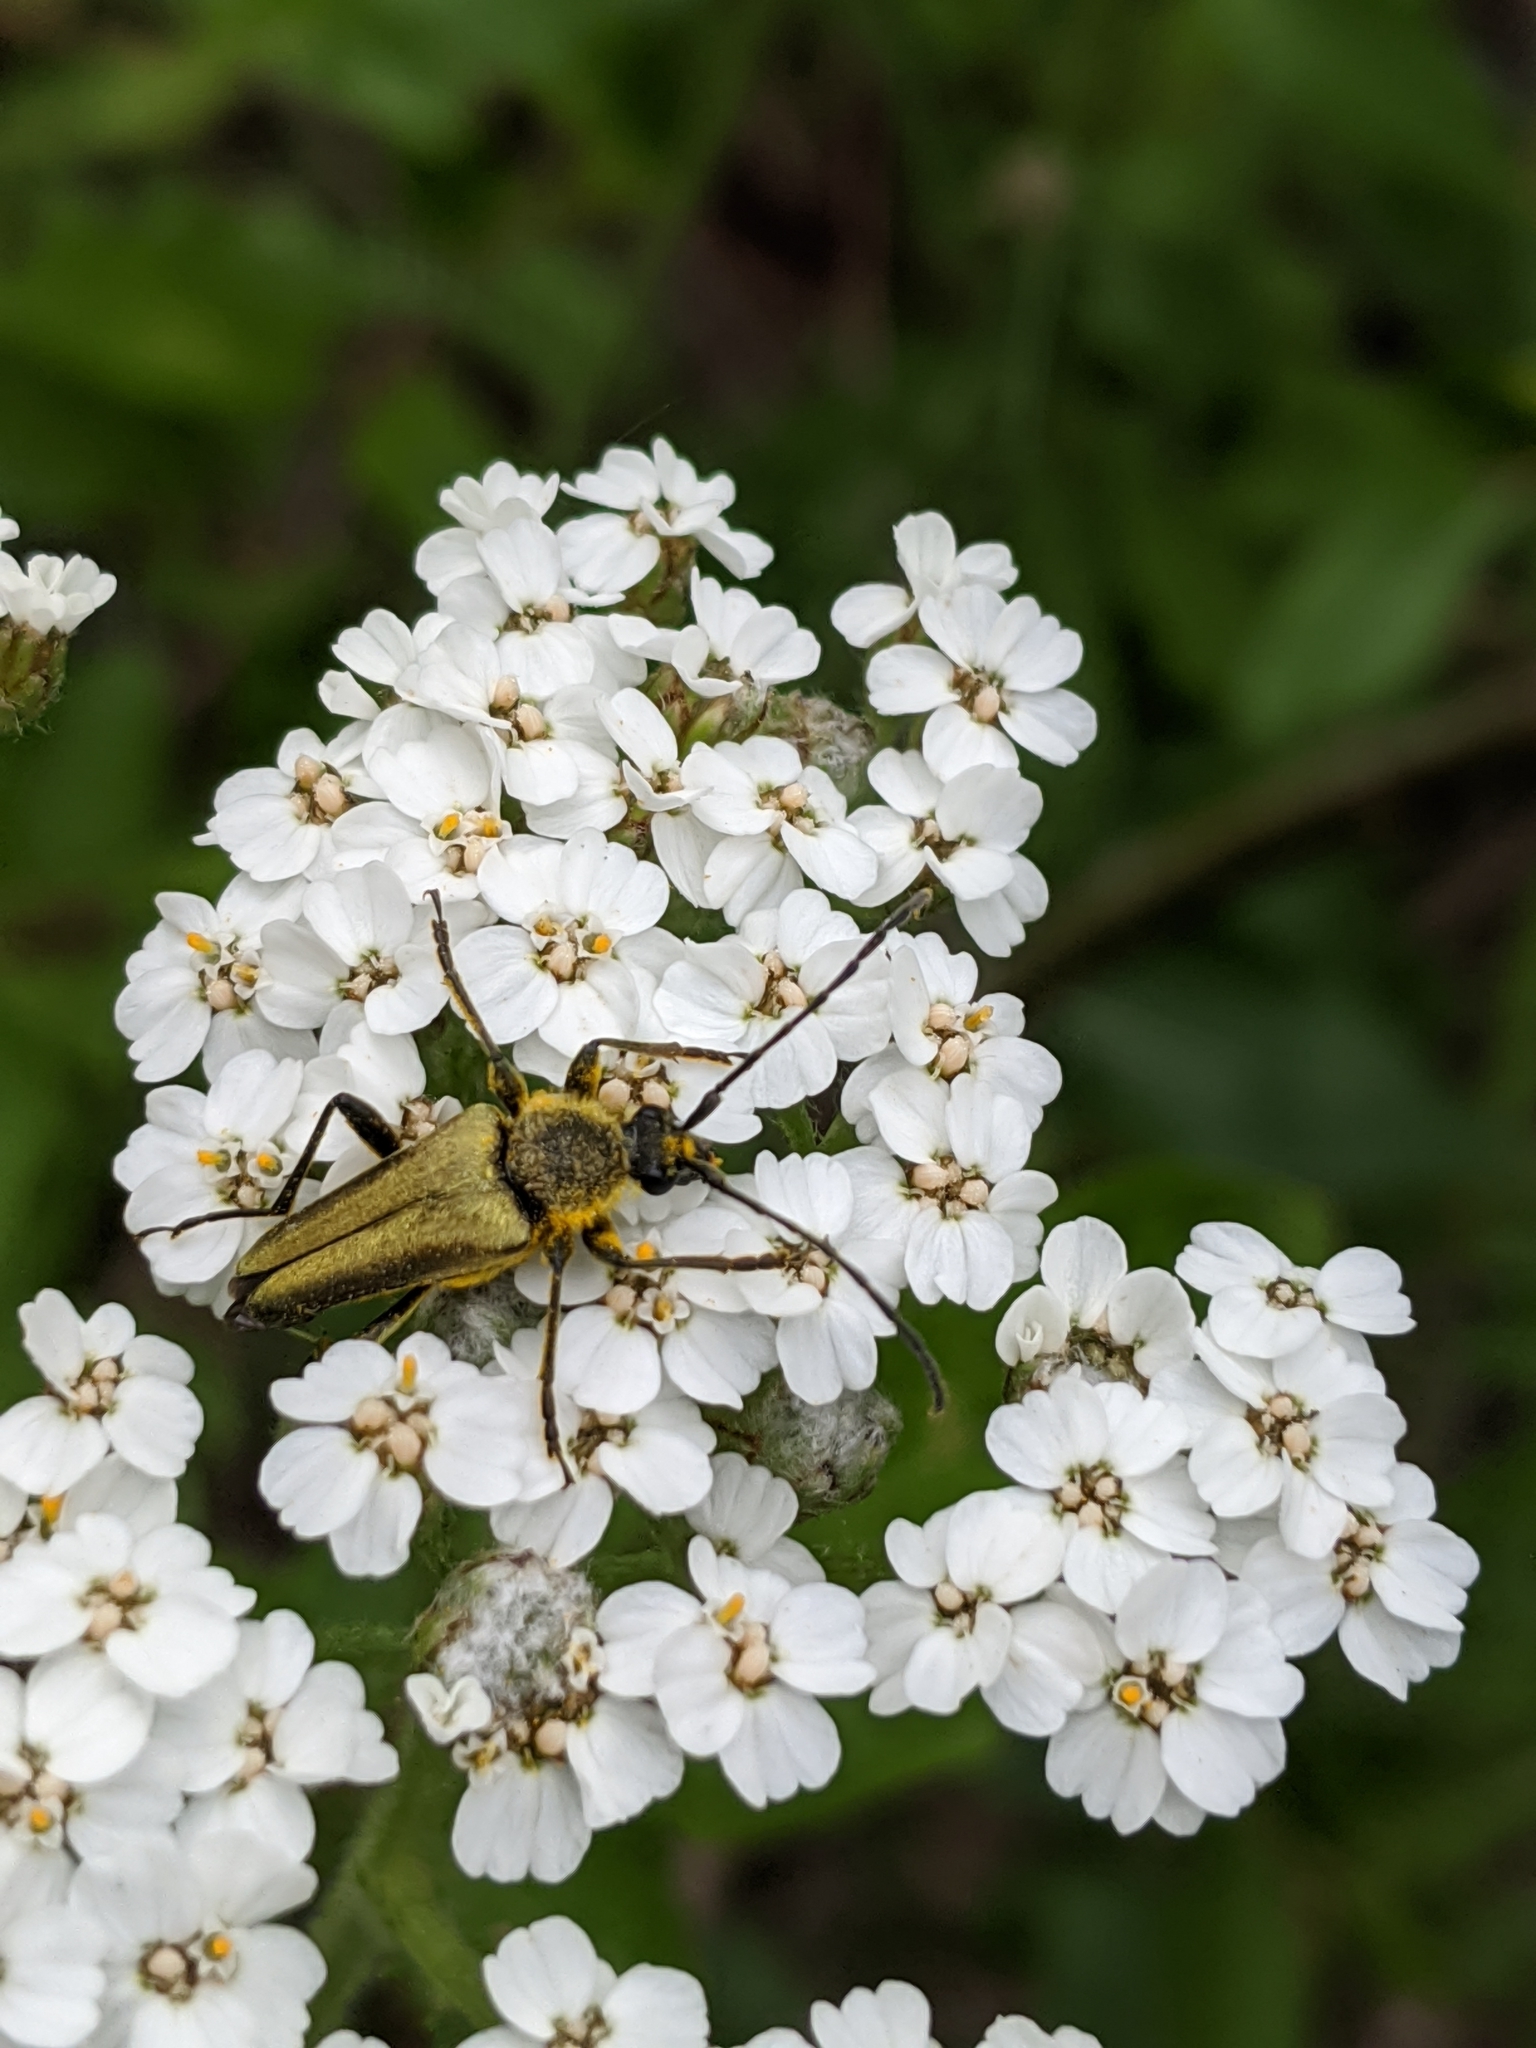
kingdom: Animalia
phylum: Arthropoda
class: Insecta
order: Coleoptera
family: Cerambycidae
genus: Cosmosalia
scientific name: Cosmosalia chrysocoma
